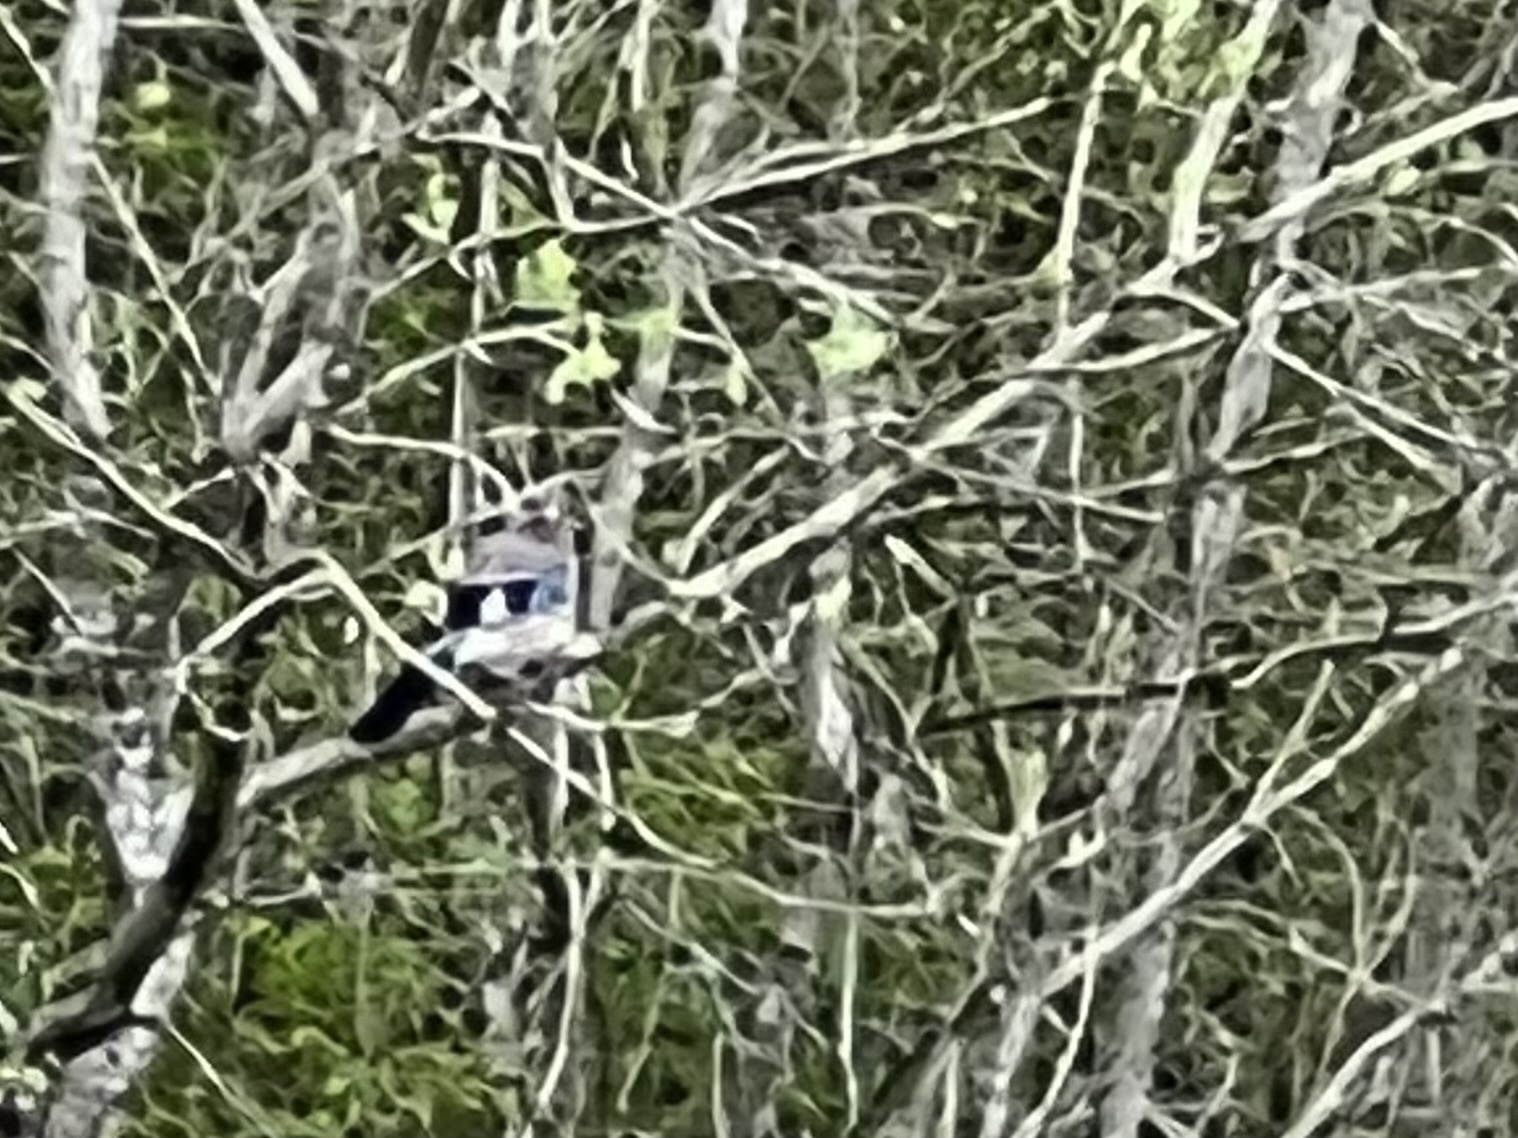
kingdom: Animalia
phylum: Chordata
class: Aves
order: Passeriformes
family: Corvidae
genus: Garrulus
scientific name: Garrulus glandarius
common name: Eurasian jay
